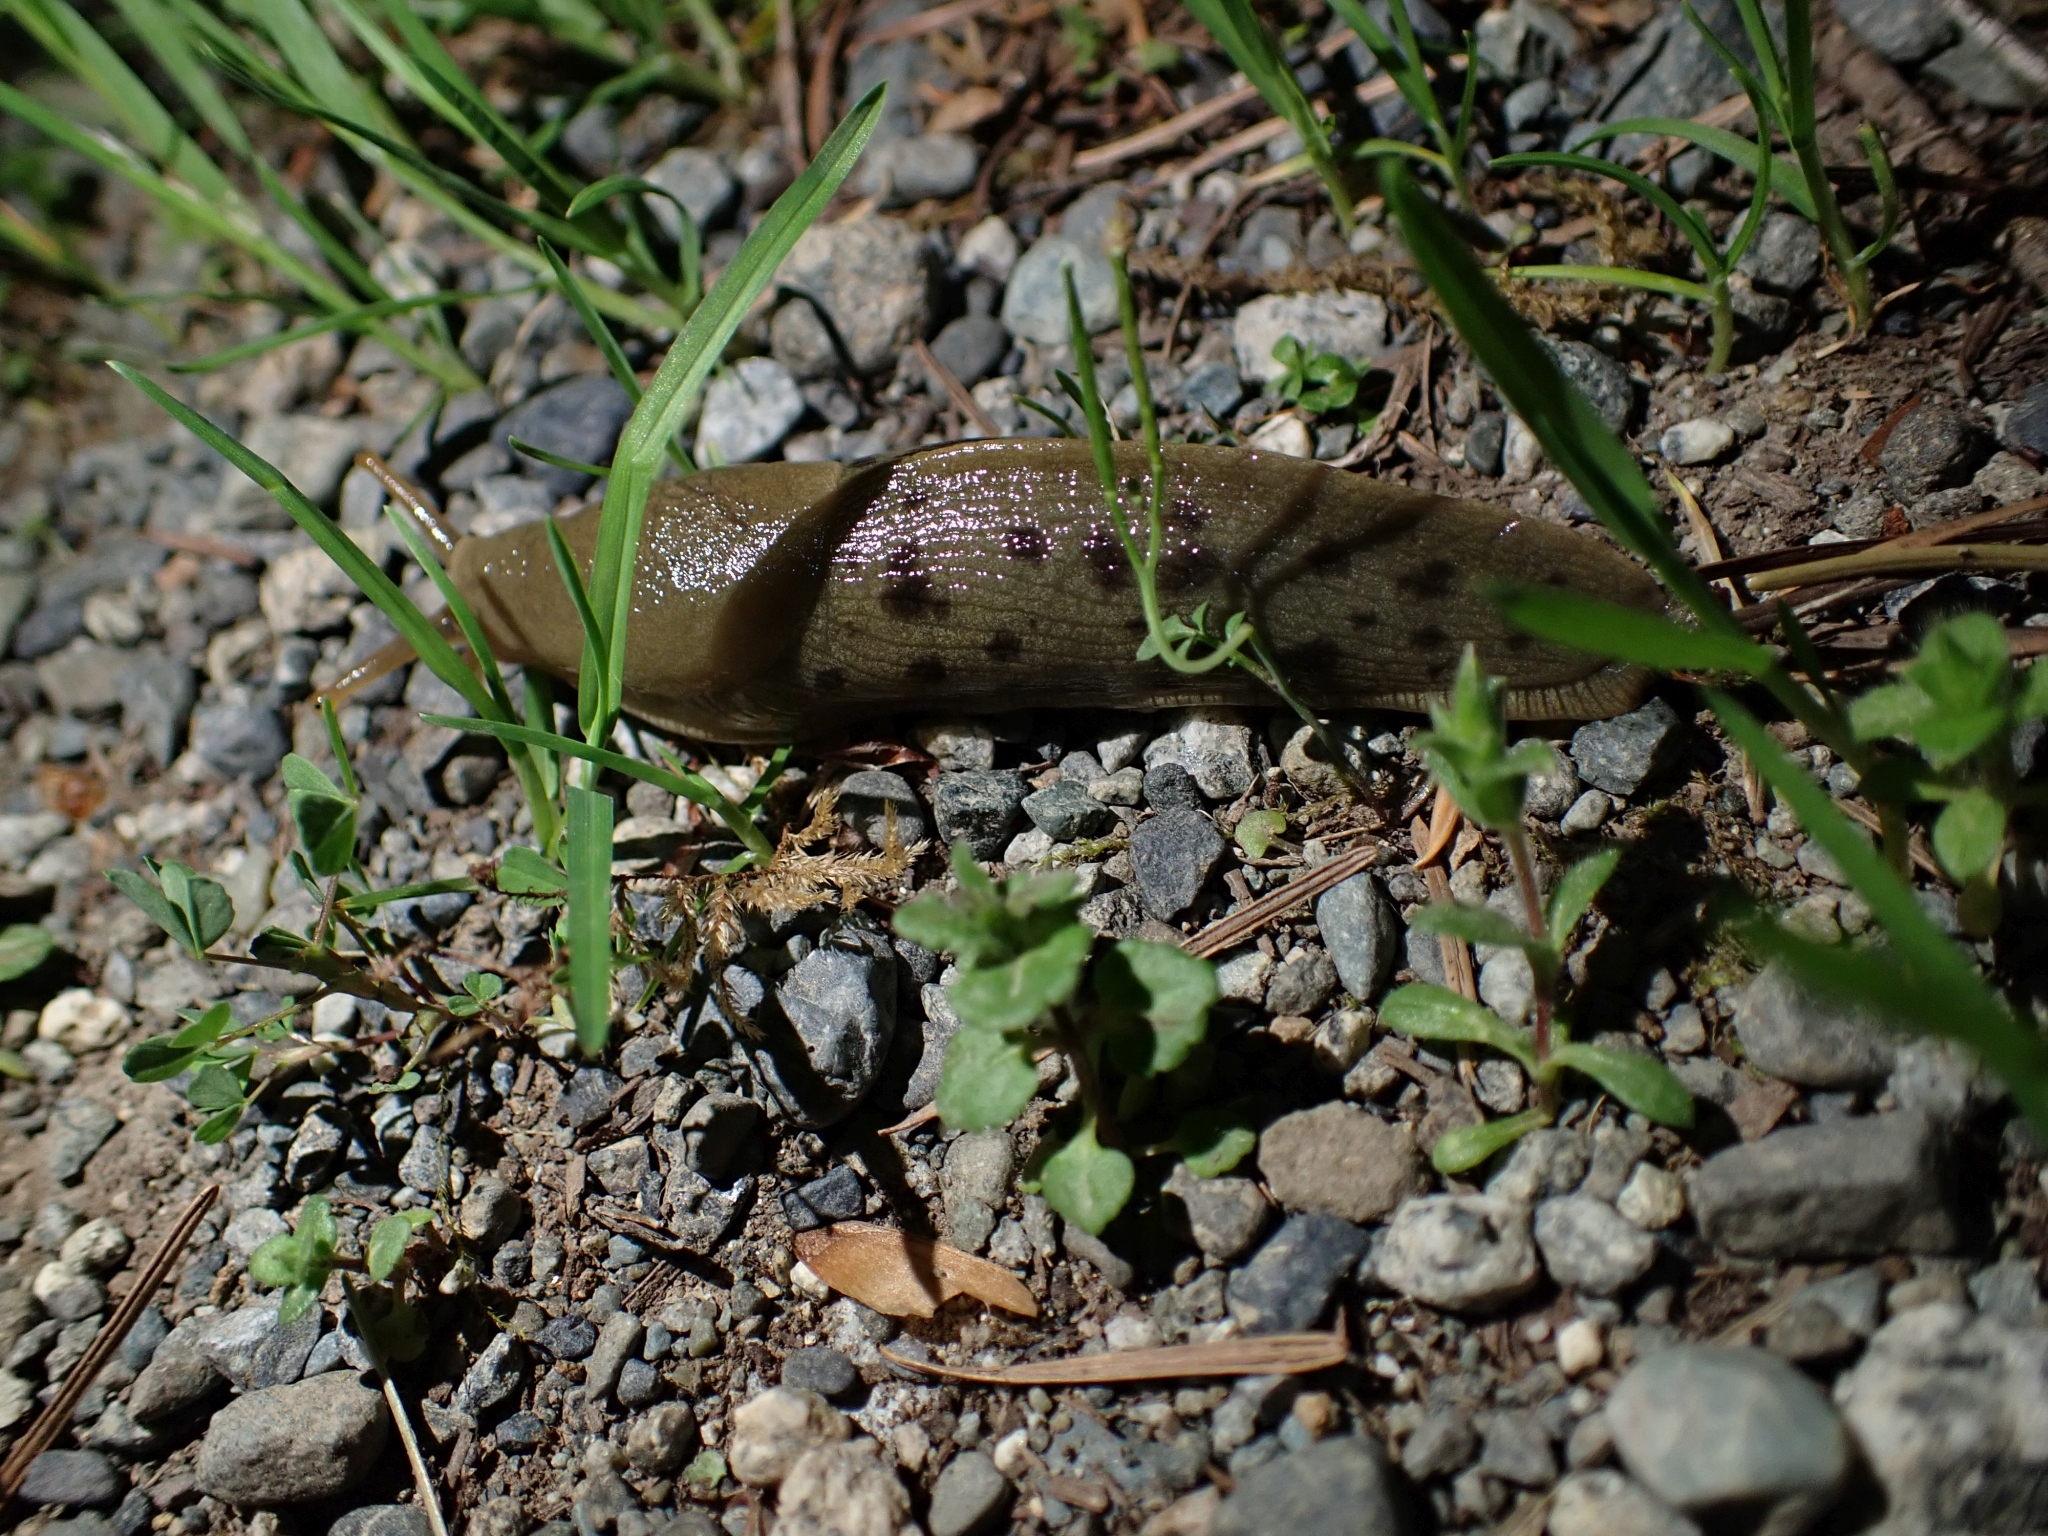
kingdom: Animalia
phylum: Mollusca
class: Gastropoda
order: Stylommatophora
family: Ariolimacidae
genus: Ariolimax
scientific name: Ariolimax columbianus
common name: Pacific banana slug
